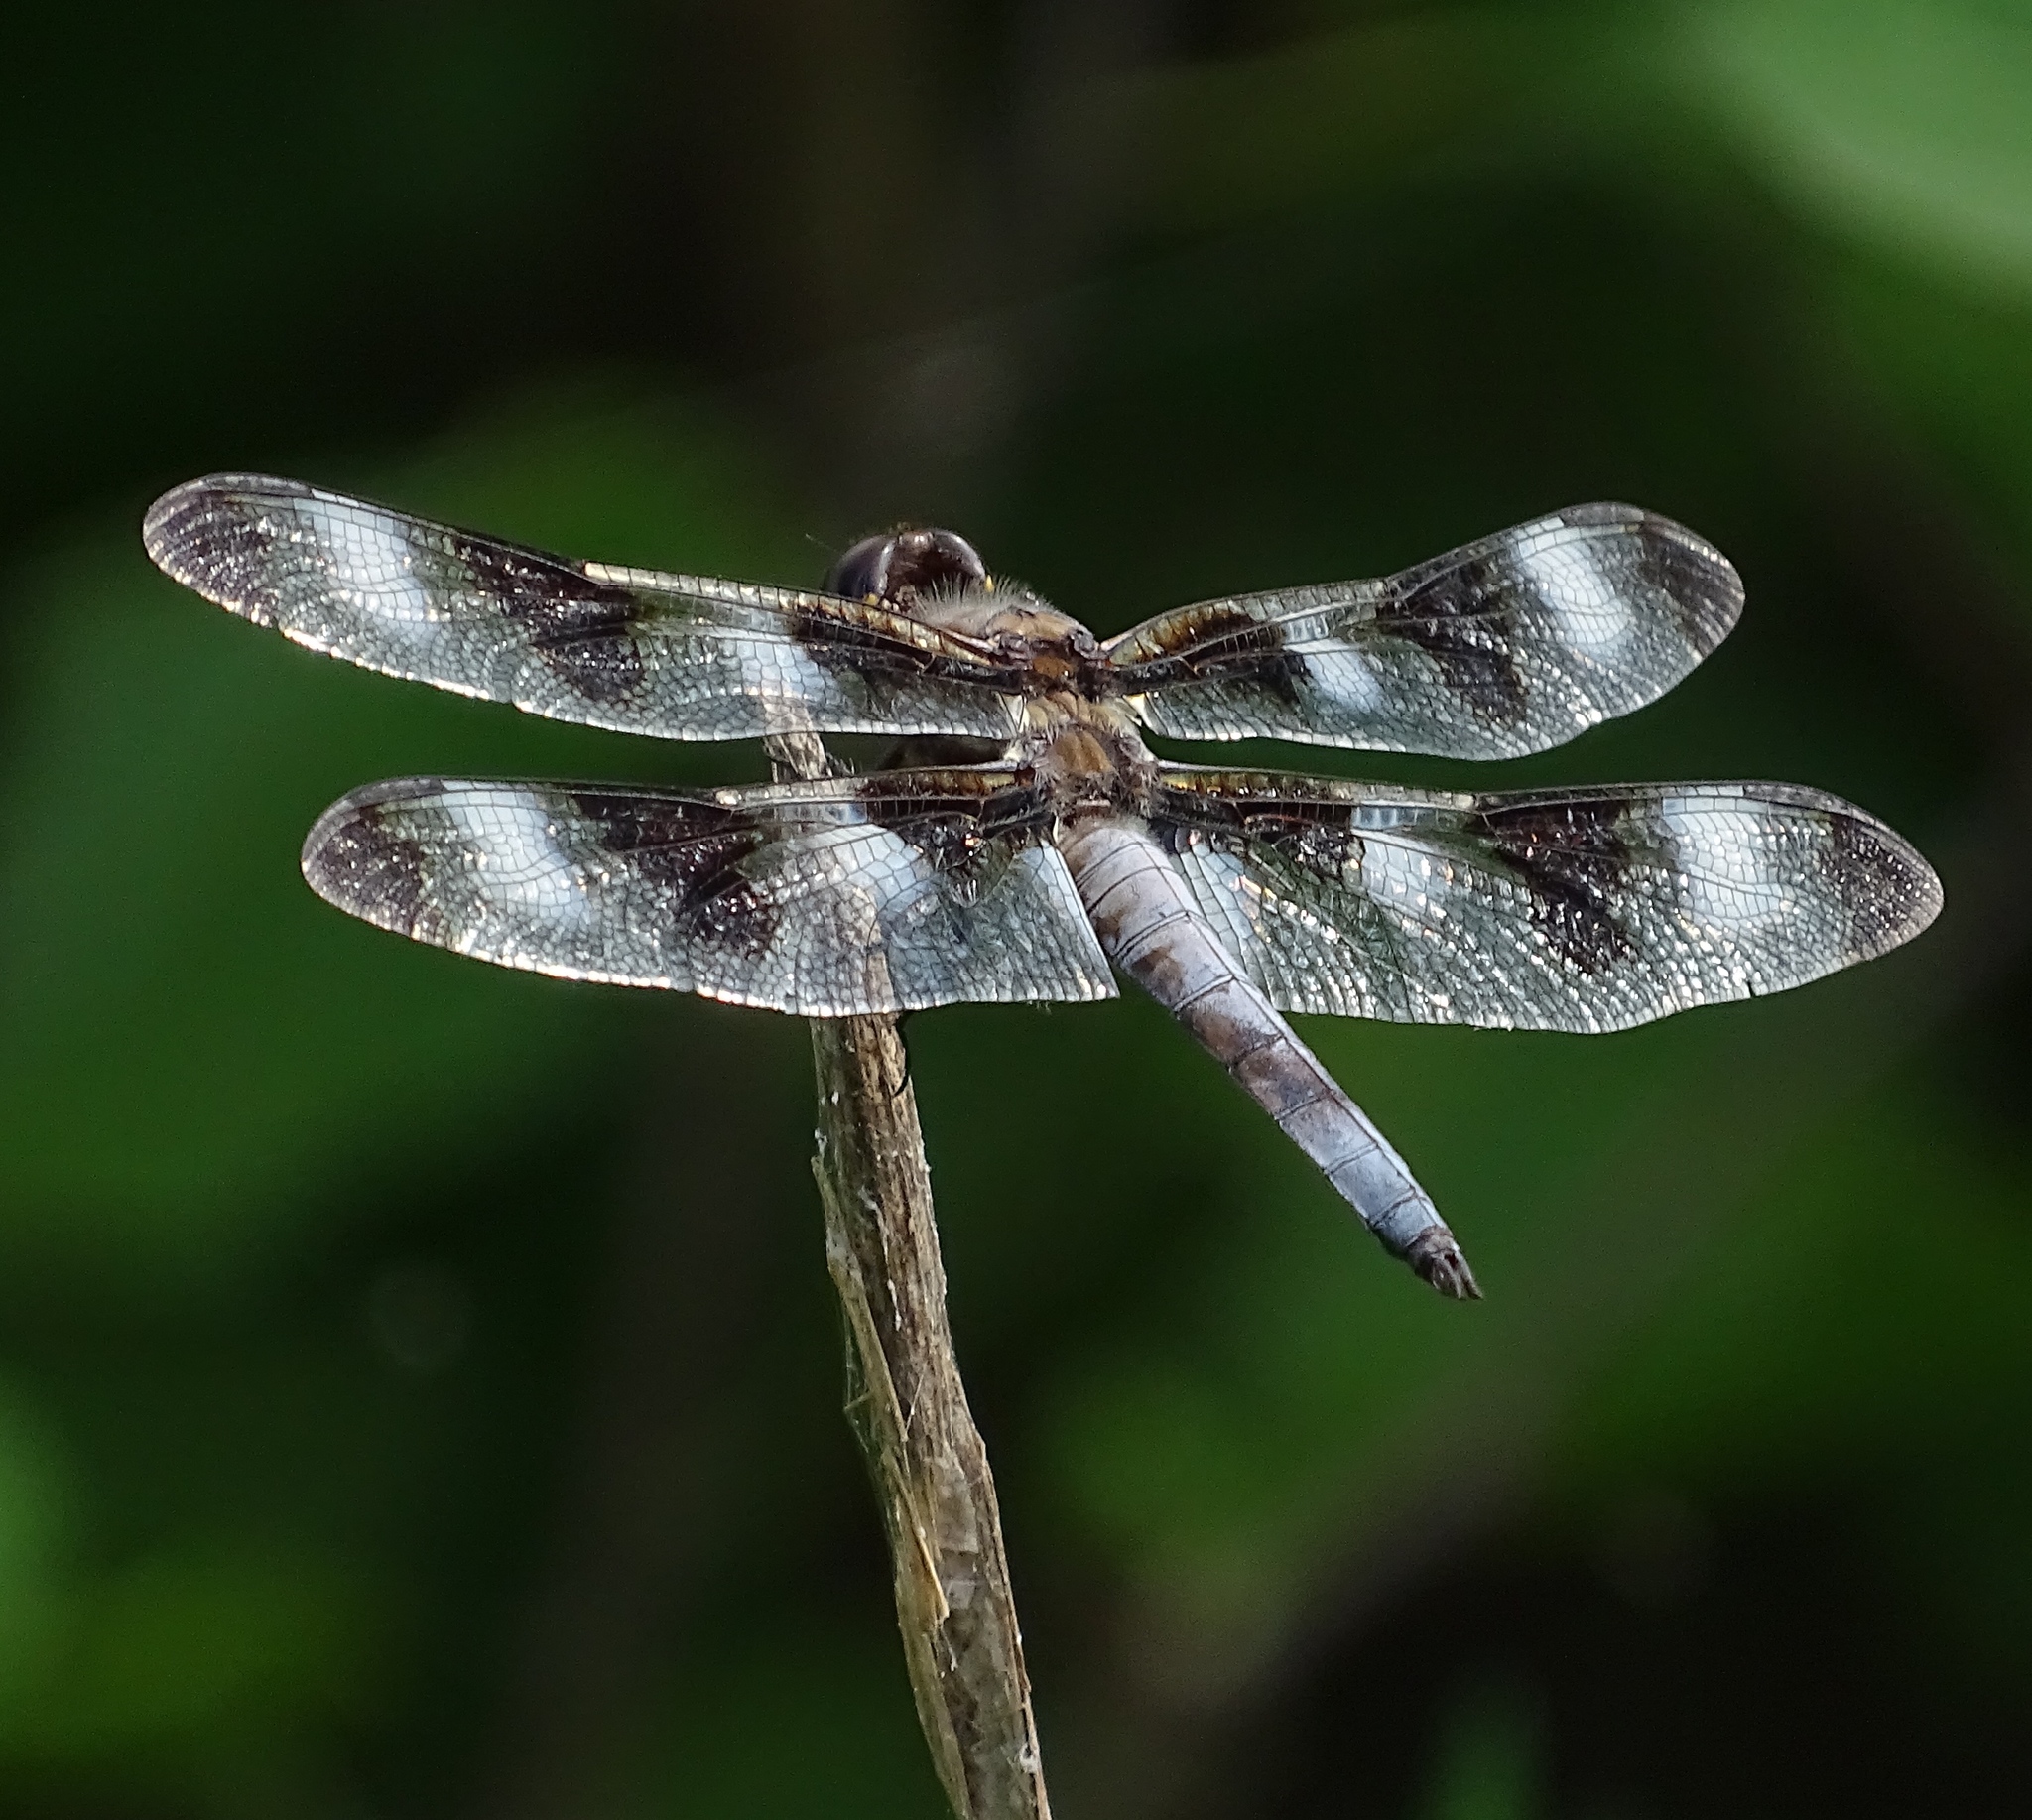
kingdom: Animalia
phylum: Arthropoda
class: Insecta
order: Odonata
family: Libellulidae
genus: Libellula
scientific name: Libellula pulchella
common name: Twelve-spotted skimmer
